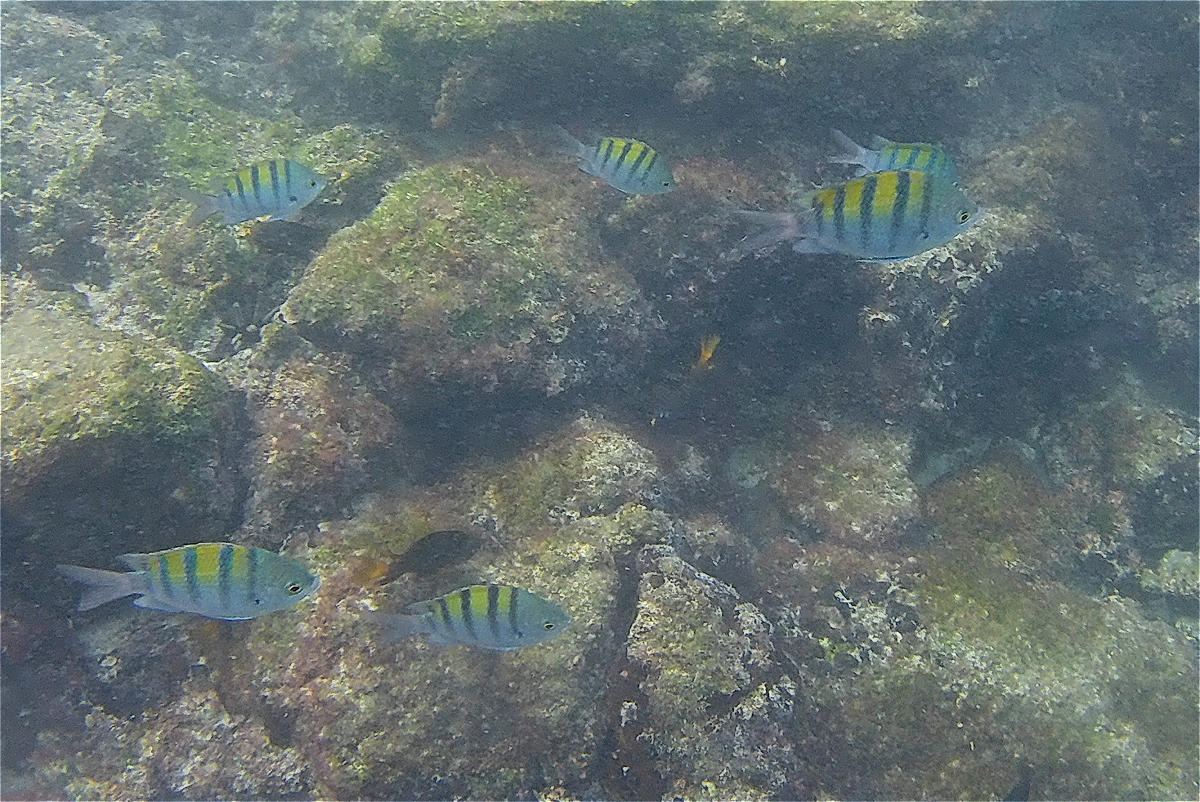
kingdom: Animalia
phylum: Chordata
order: Perciformes
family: Pomacentridae
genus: Abudefduf
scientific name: Abudefduf troschelii
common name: Panamic sergeant major
